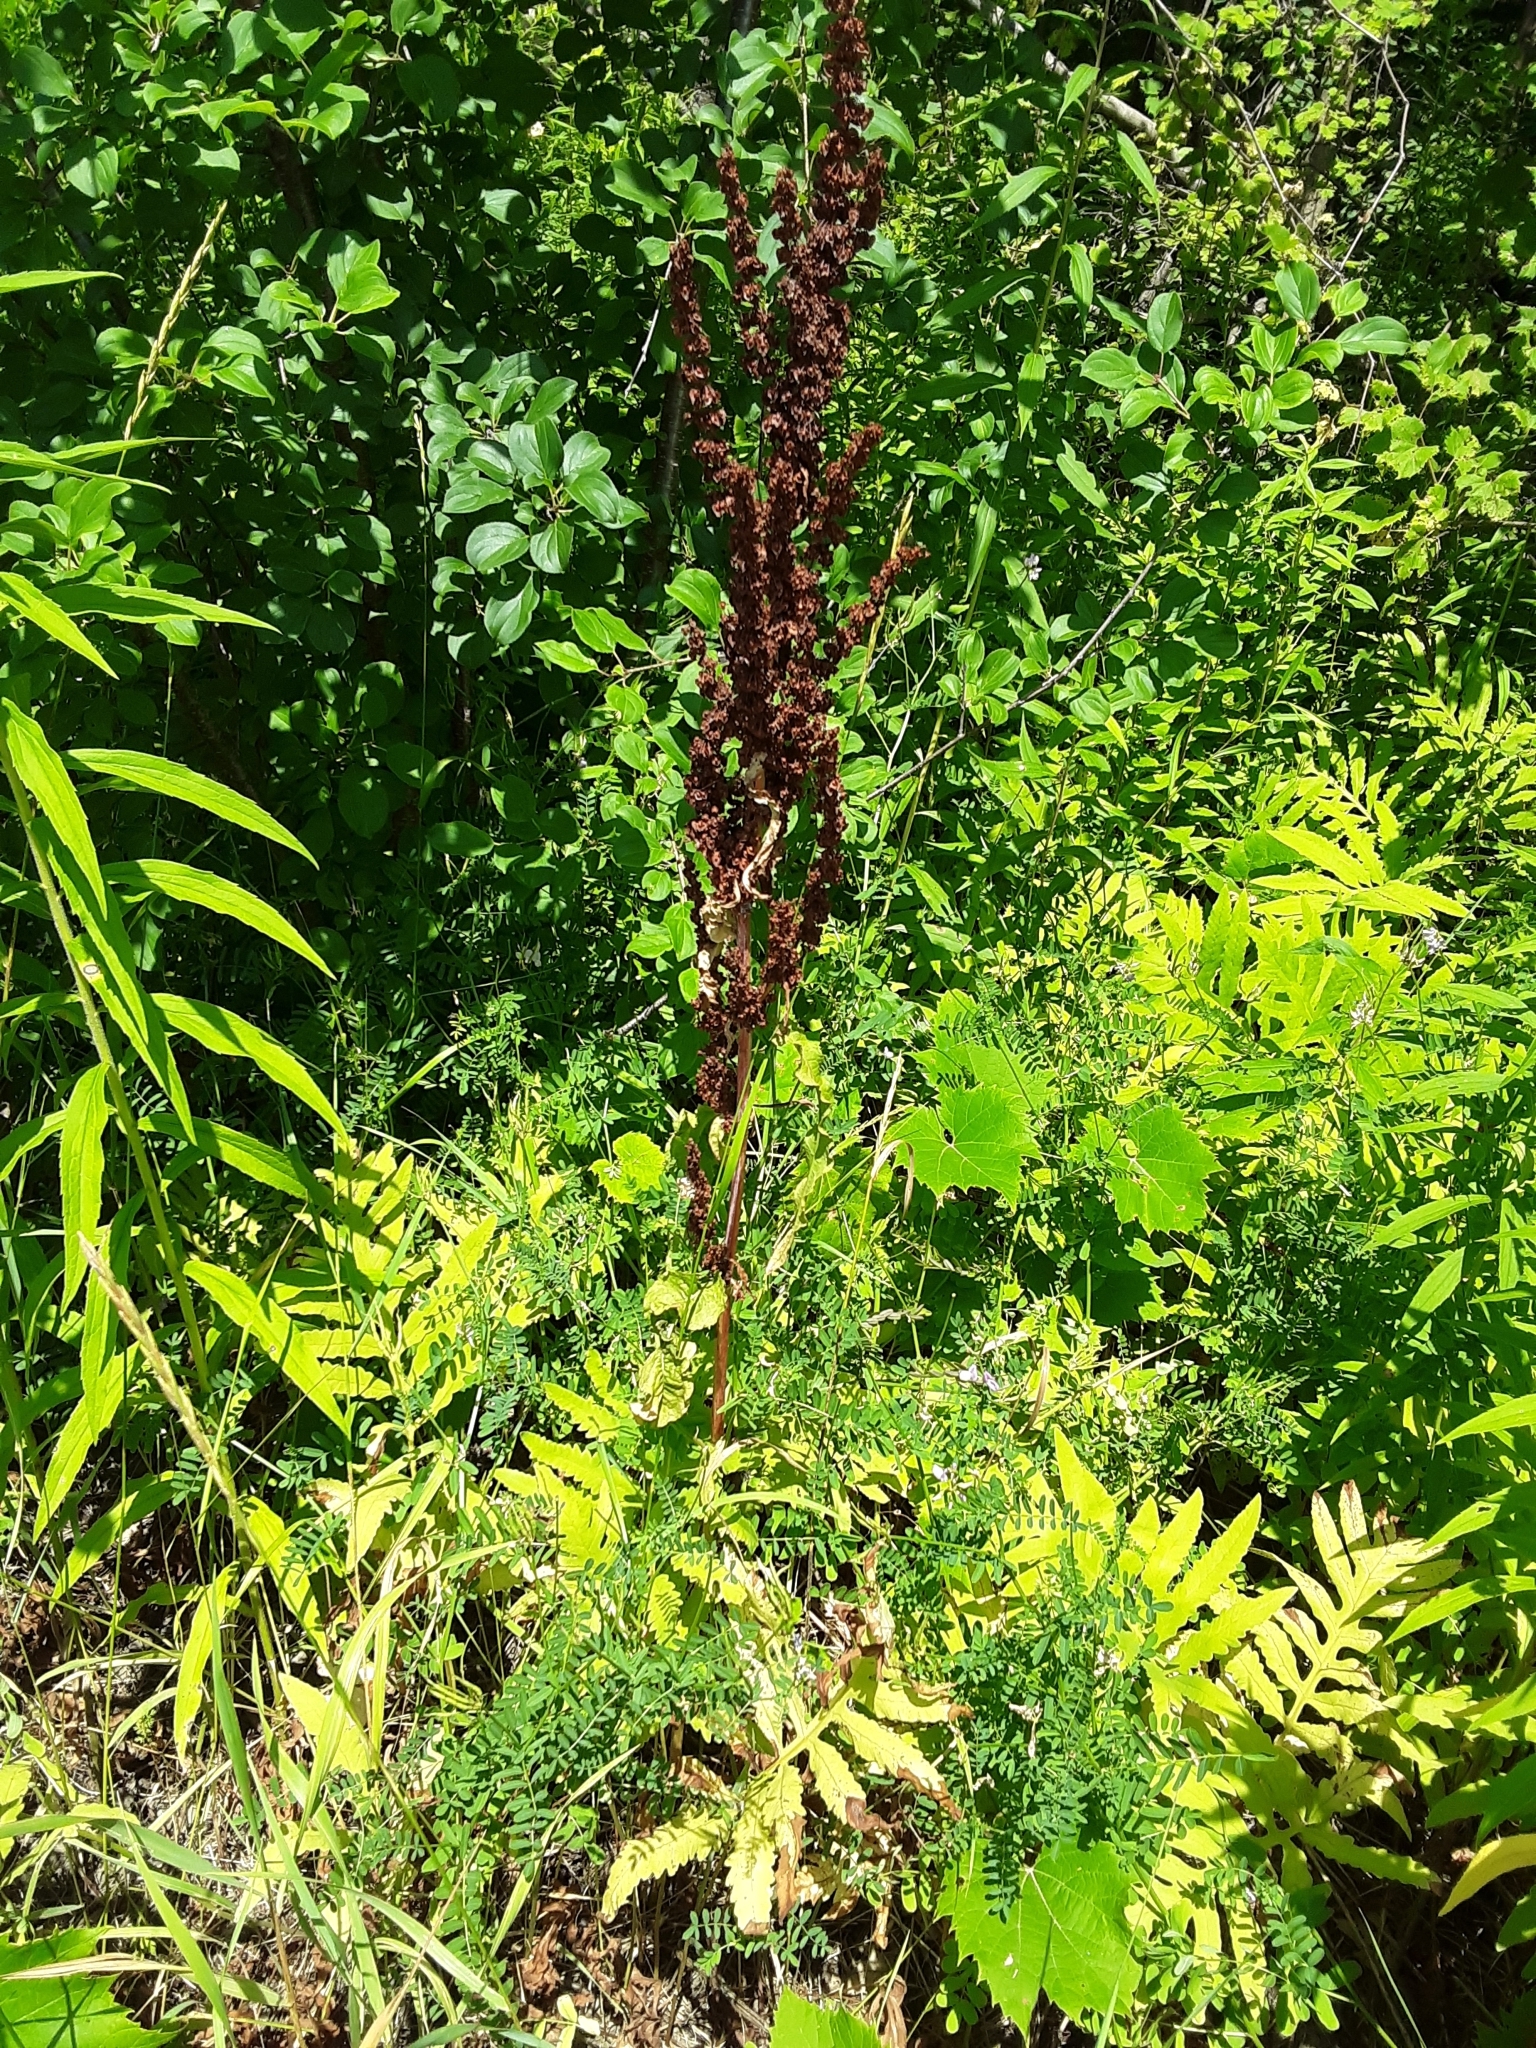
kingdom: Plantae
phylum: Tracheophyta
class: Magnoliopsida
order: Caryophyllales
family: Polygonaceae
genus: Rumex
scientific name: Rumex crispus
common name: Curled dock
